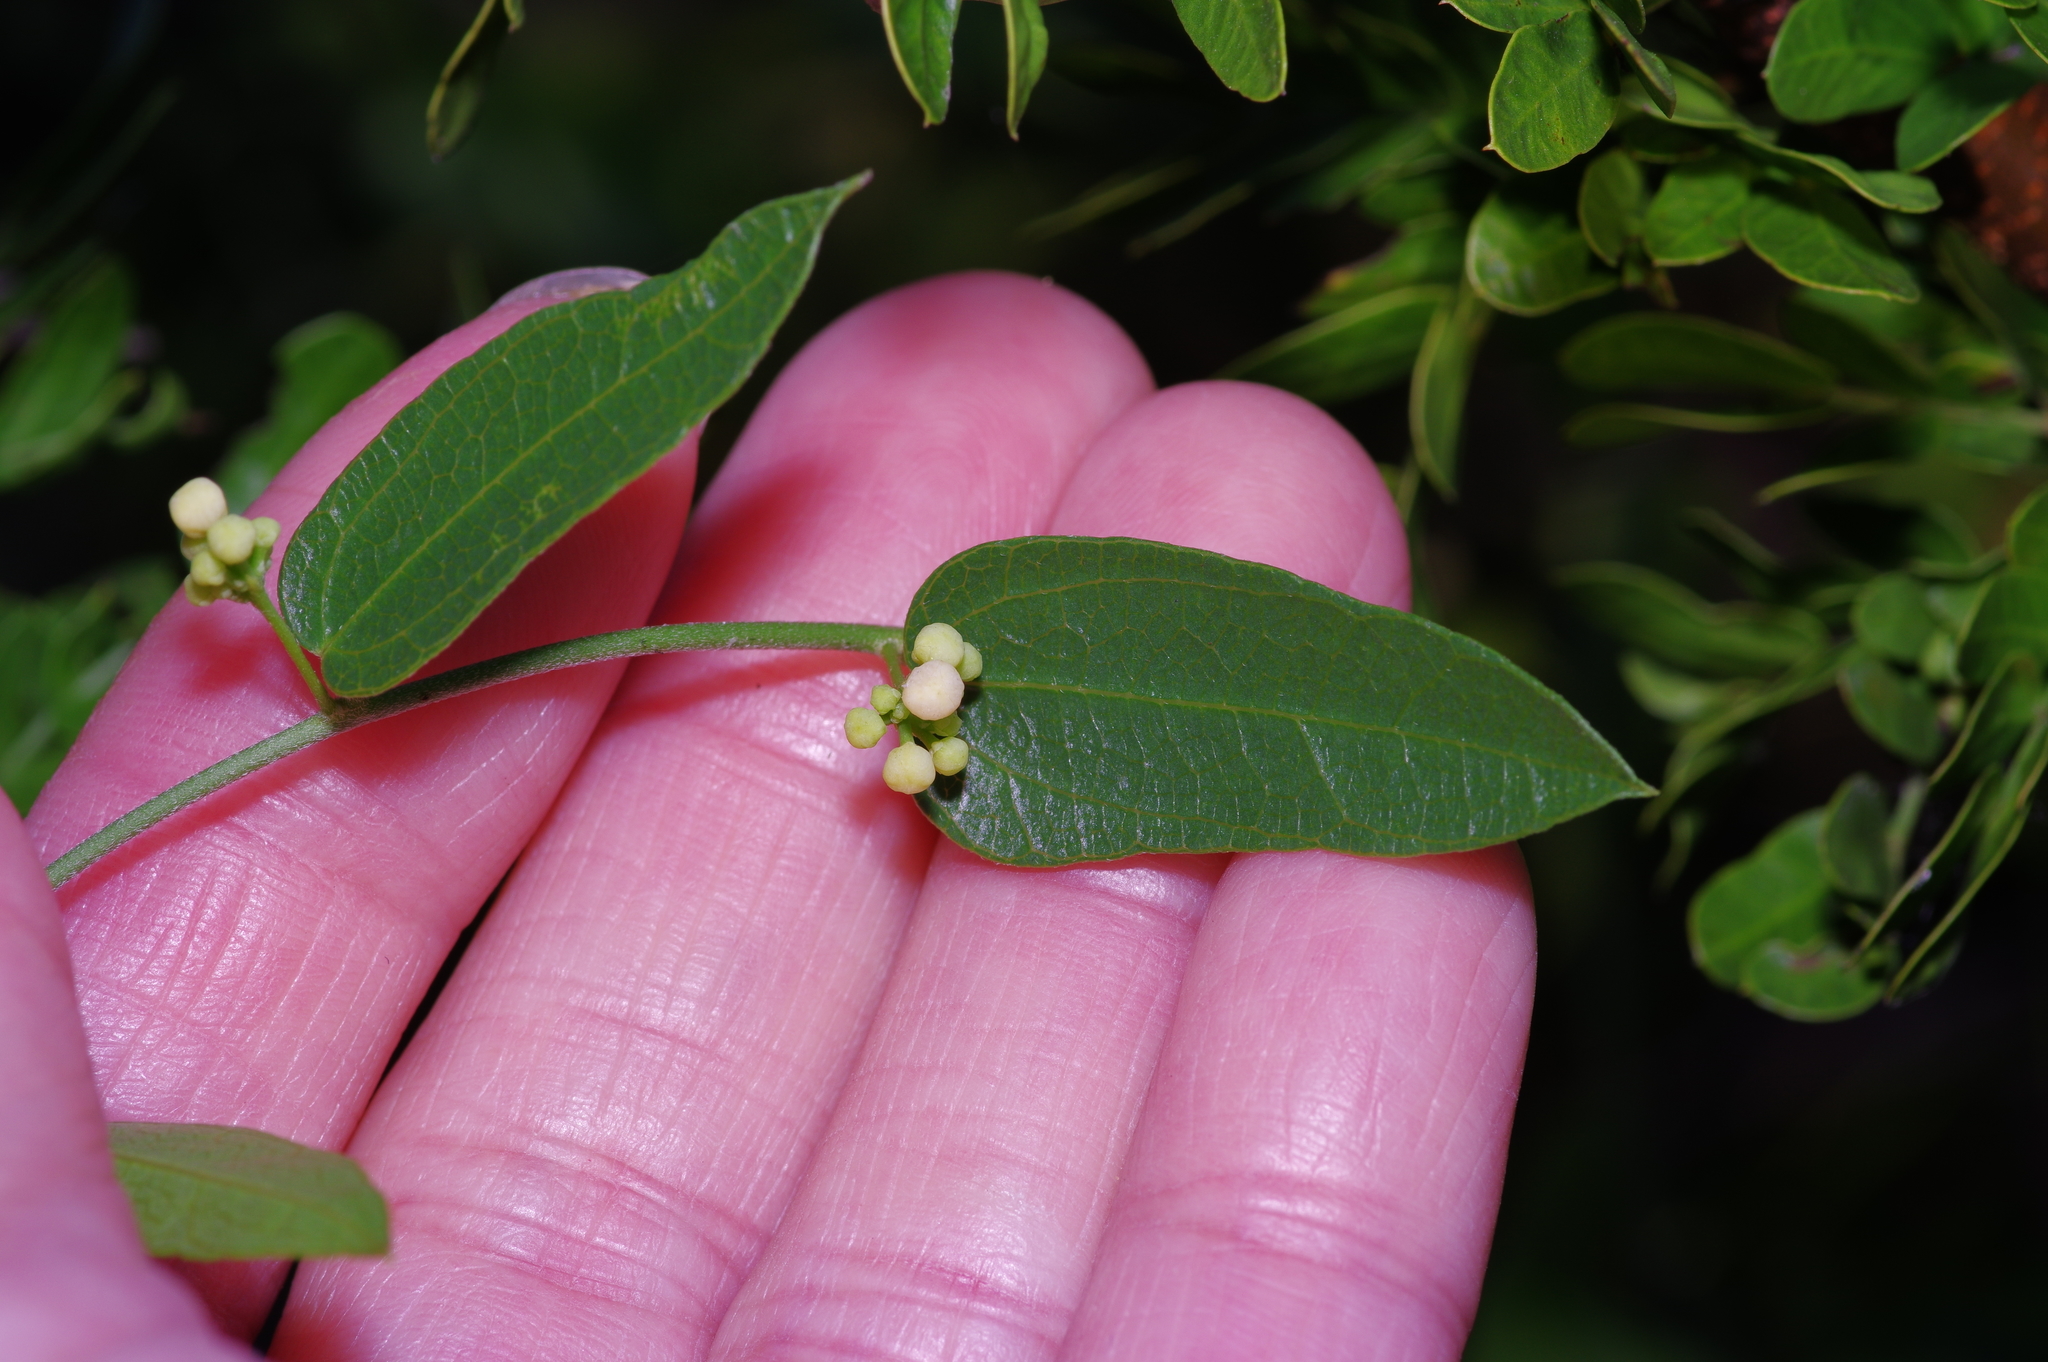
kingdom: Plantae
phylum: Tracheophyta
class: Magnoliopsida
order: Ranunculales
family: Menispermaceae
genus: Cocculus
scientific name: Cocculus diversifolius
